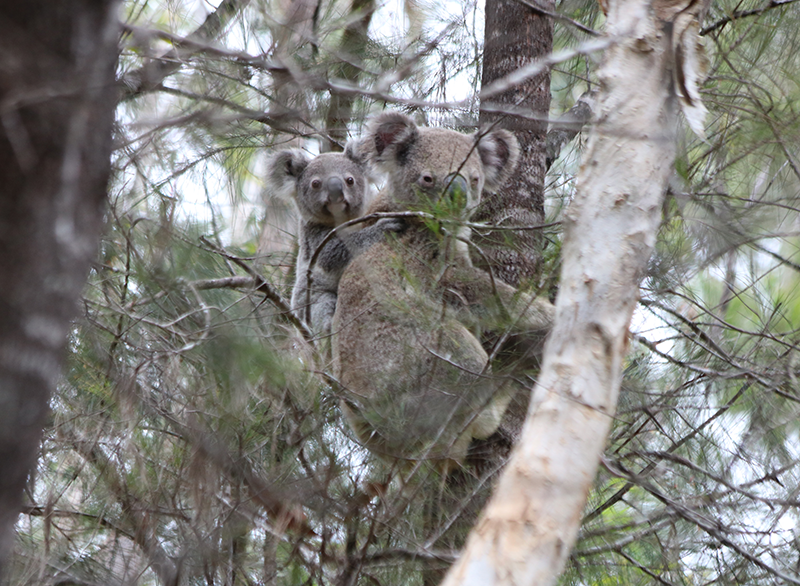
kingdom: Animalia
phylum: Chordata
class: Mammalia
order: Diprotodontia
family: Phascolarctidae
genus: Phascolarctos
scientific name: Phascolarctos cinereus
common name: Koala
